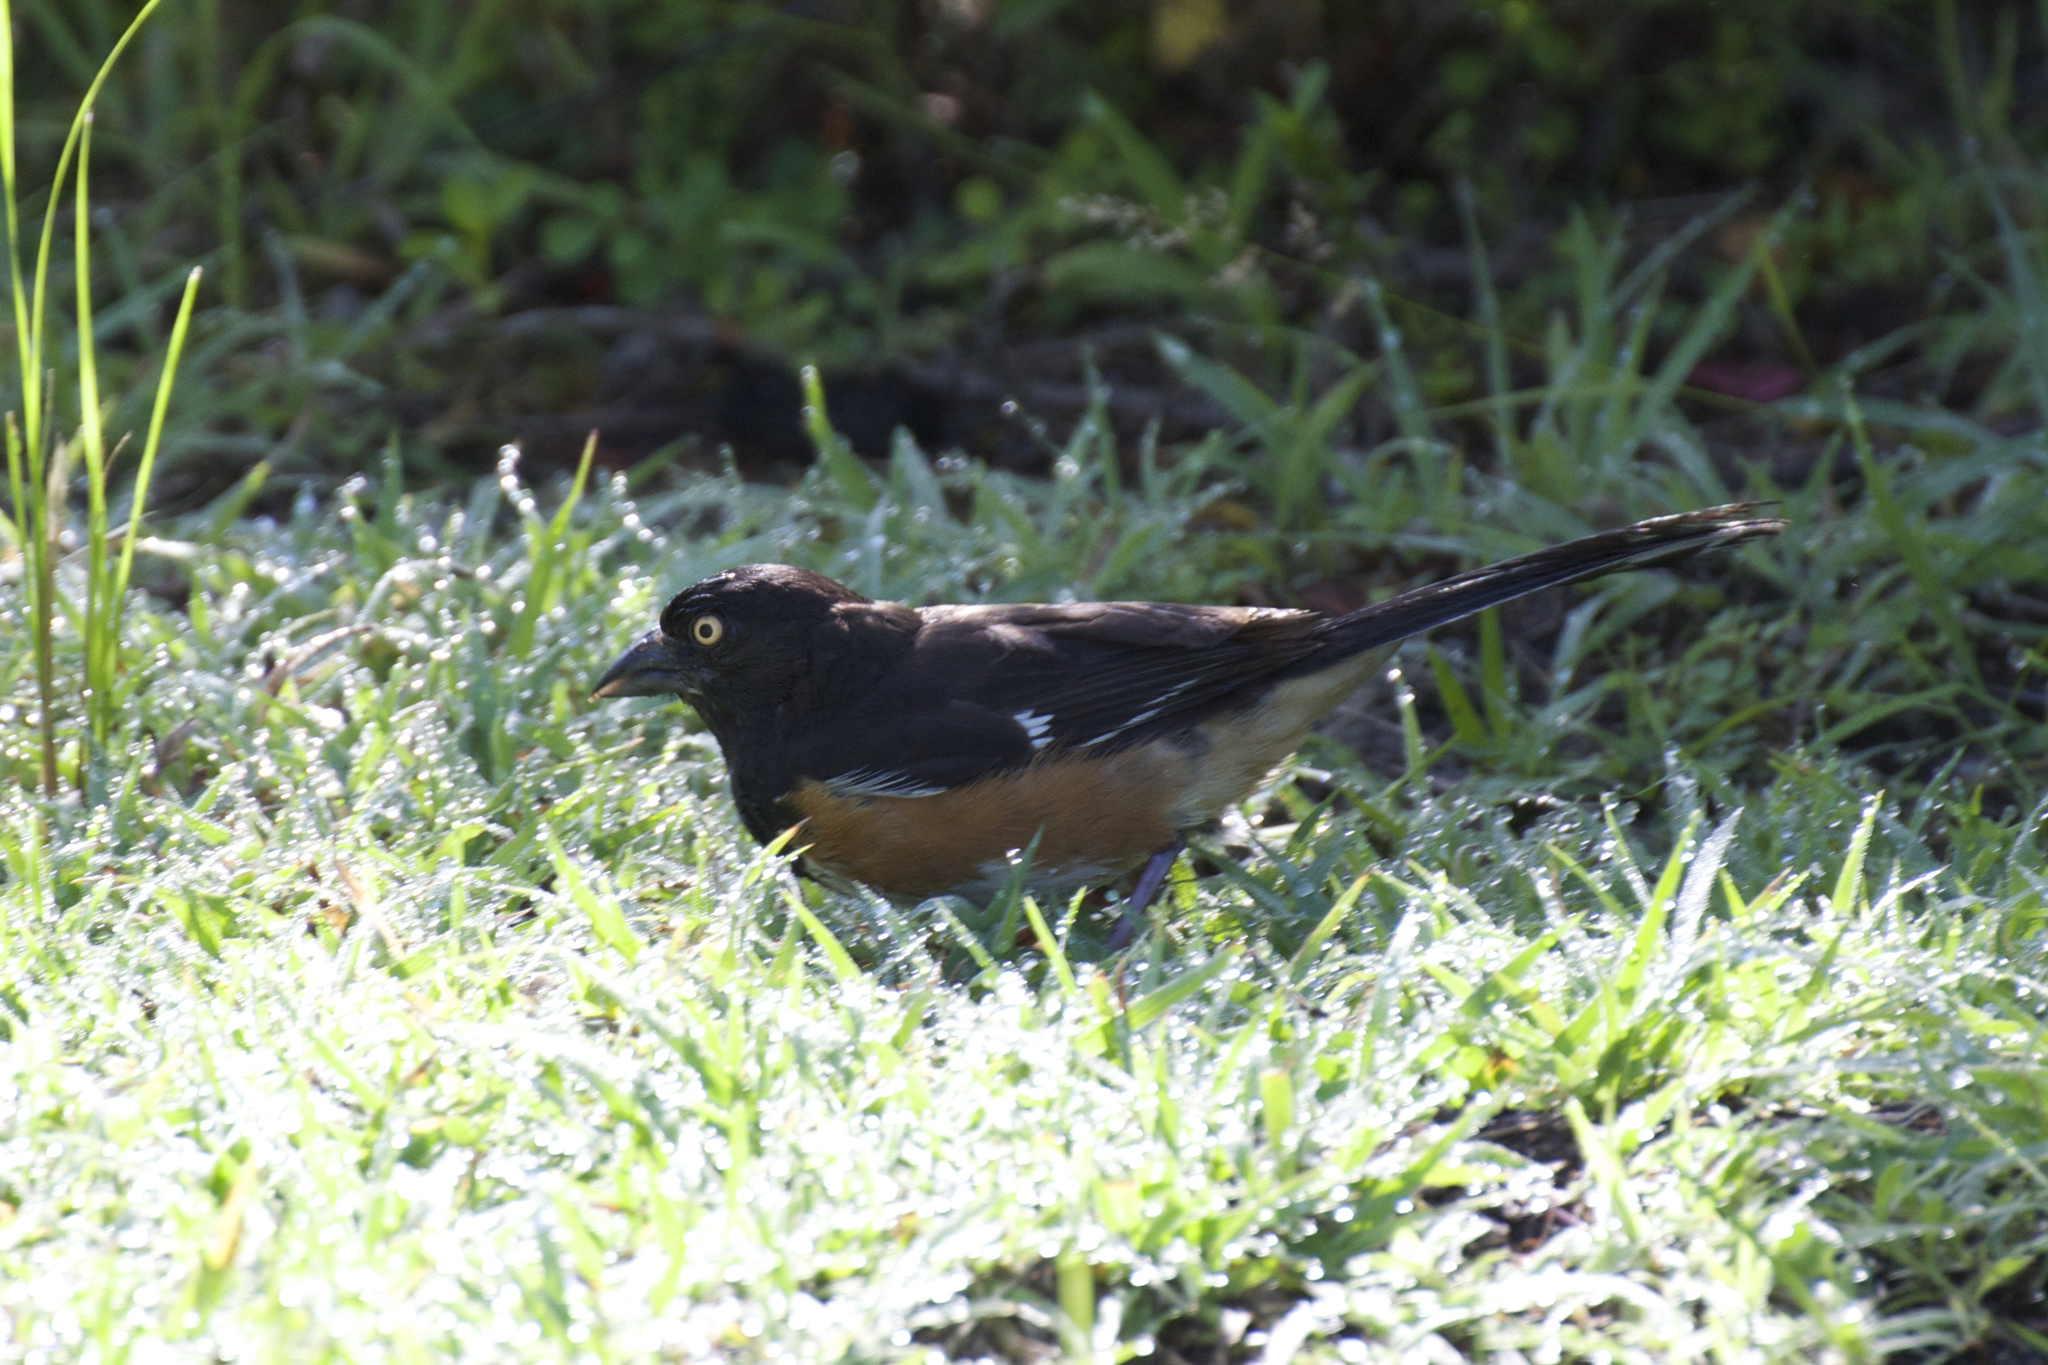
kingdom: Animalia
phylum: Chordata
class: Aves
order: Passeriformes
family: Passerellidae
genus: Pipilo
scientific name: Pipilo erythrophthalmus
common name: Eastern towhee
